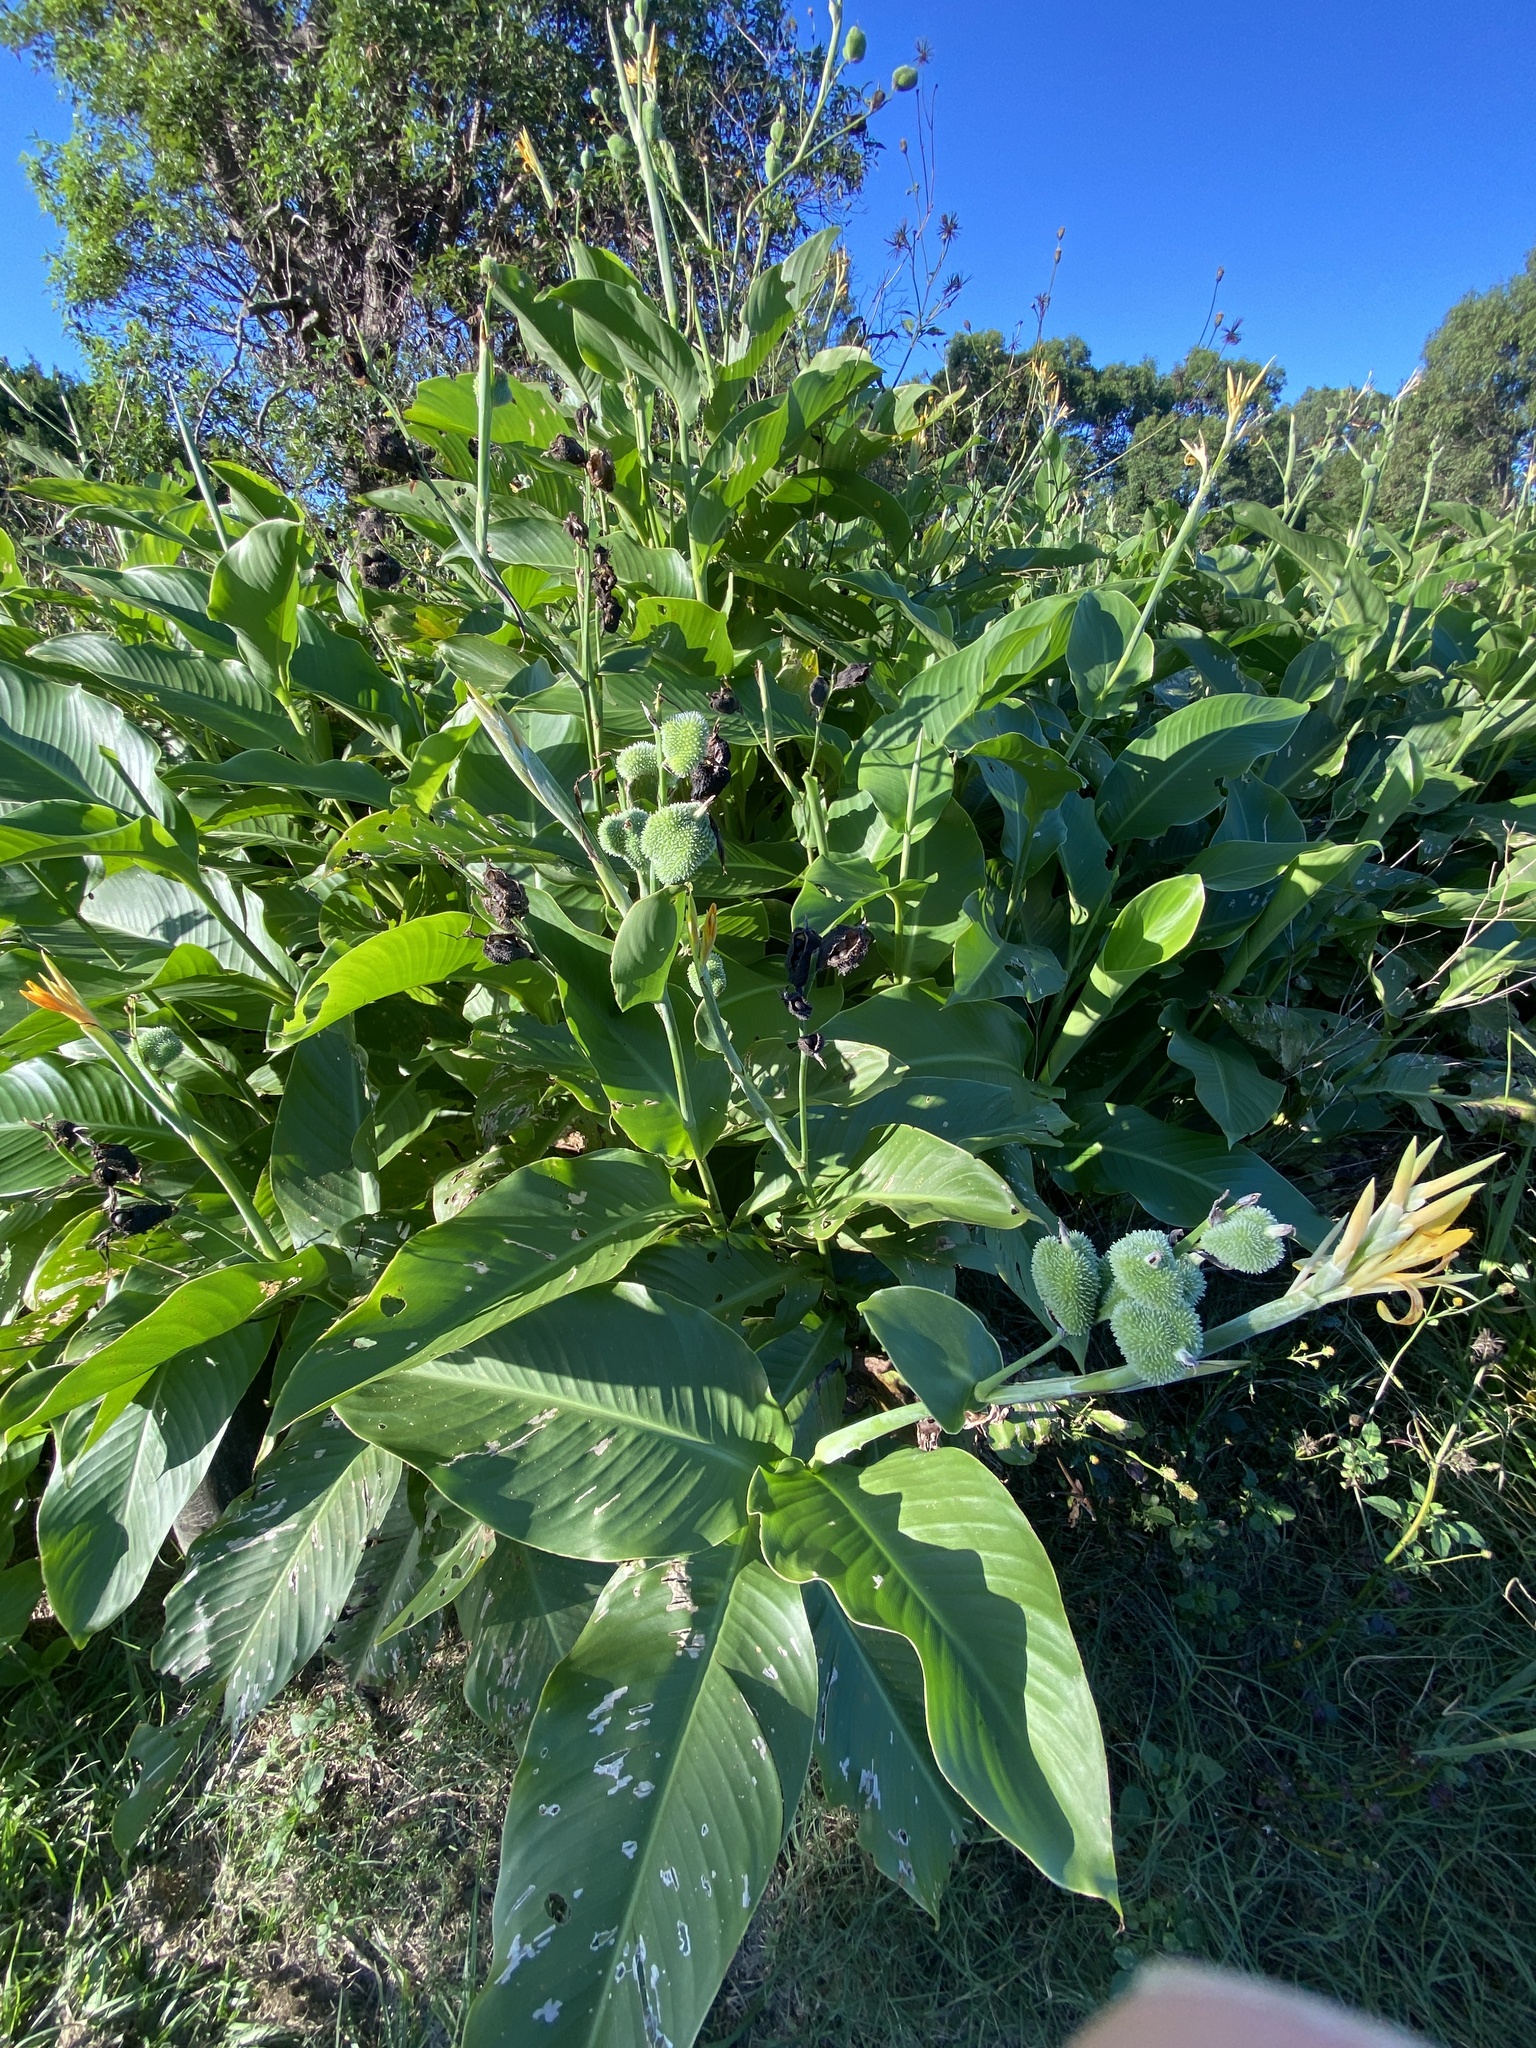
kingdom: Plantae
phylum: Tracheophyta
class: Liliopsida
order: Zingiberales
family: Cannaceae
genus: Canna
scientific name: Canna indica
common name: Indian shot
